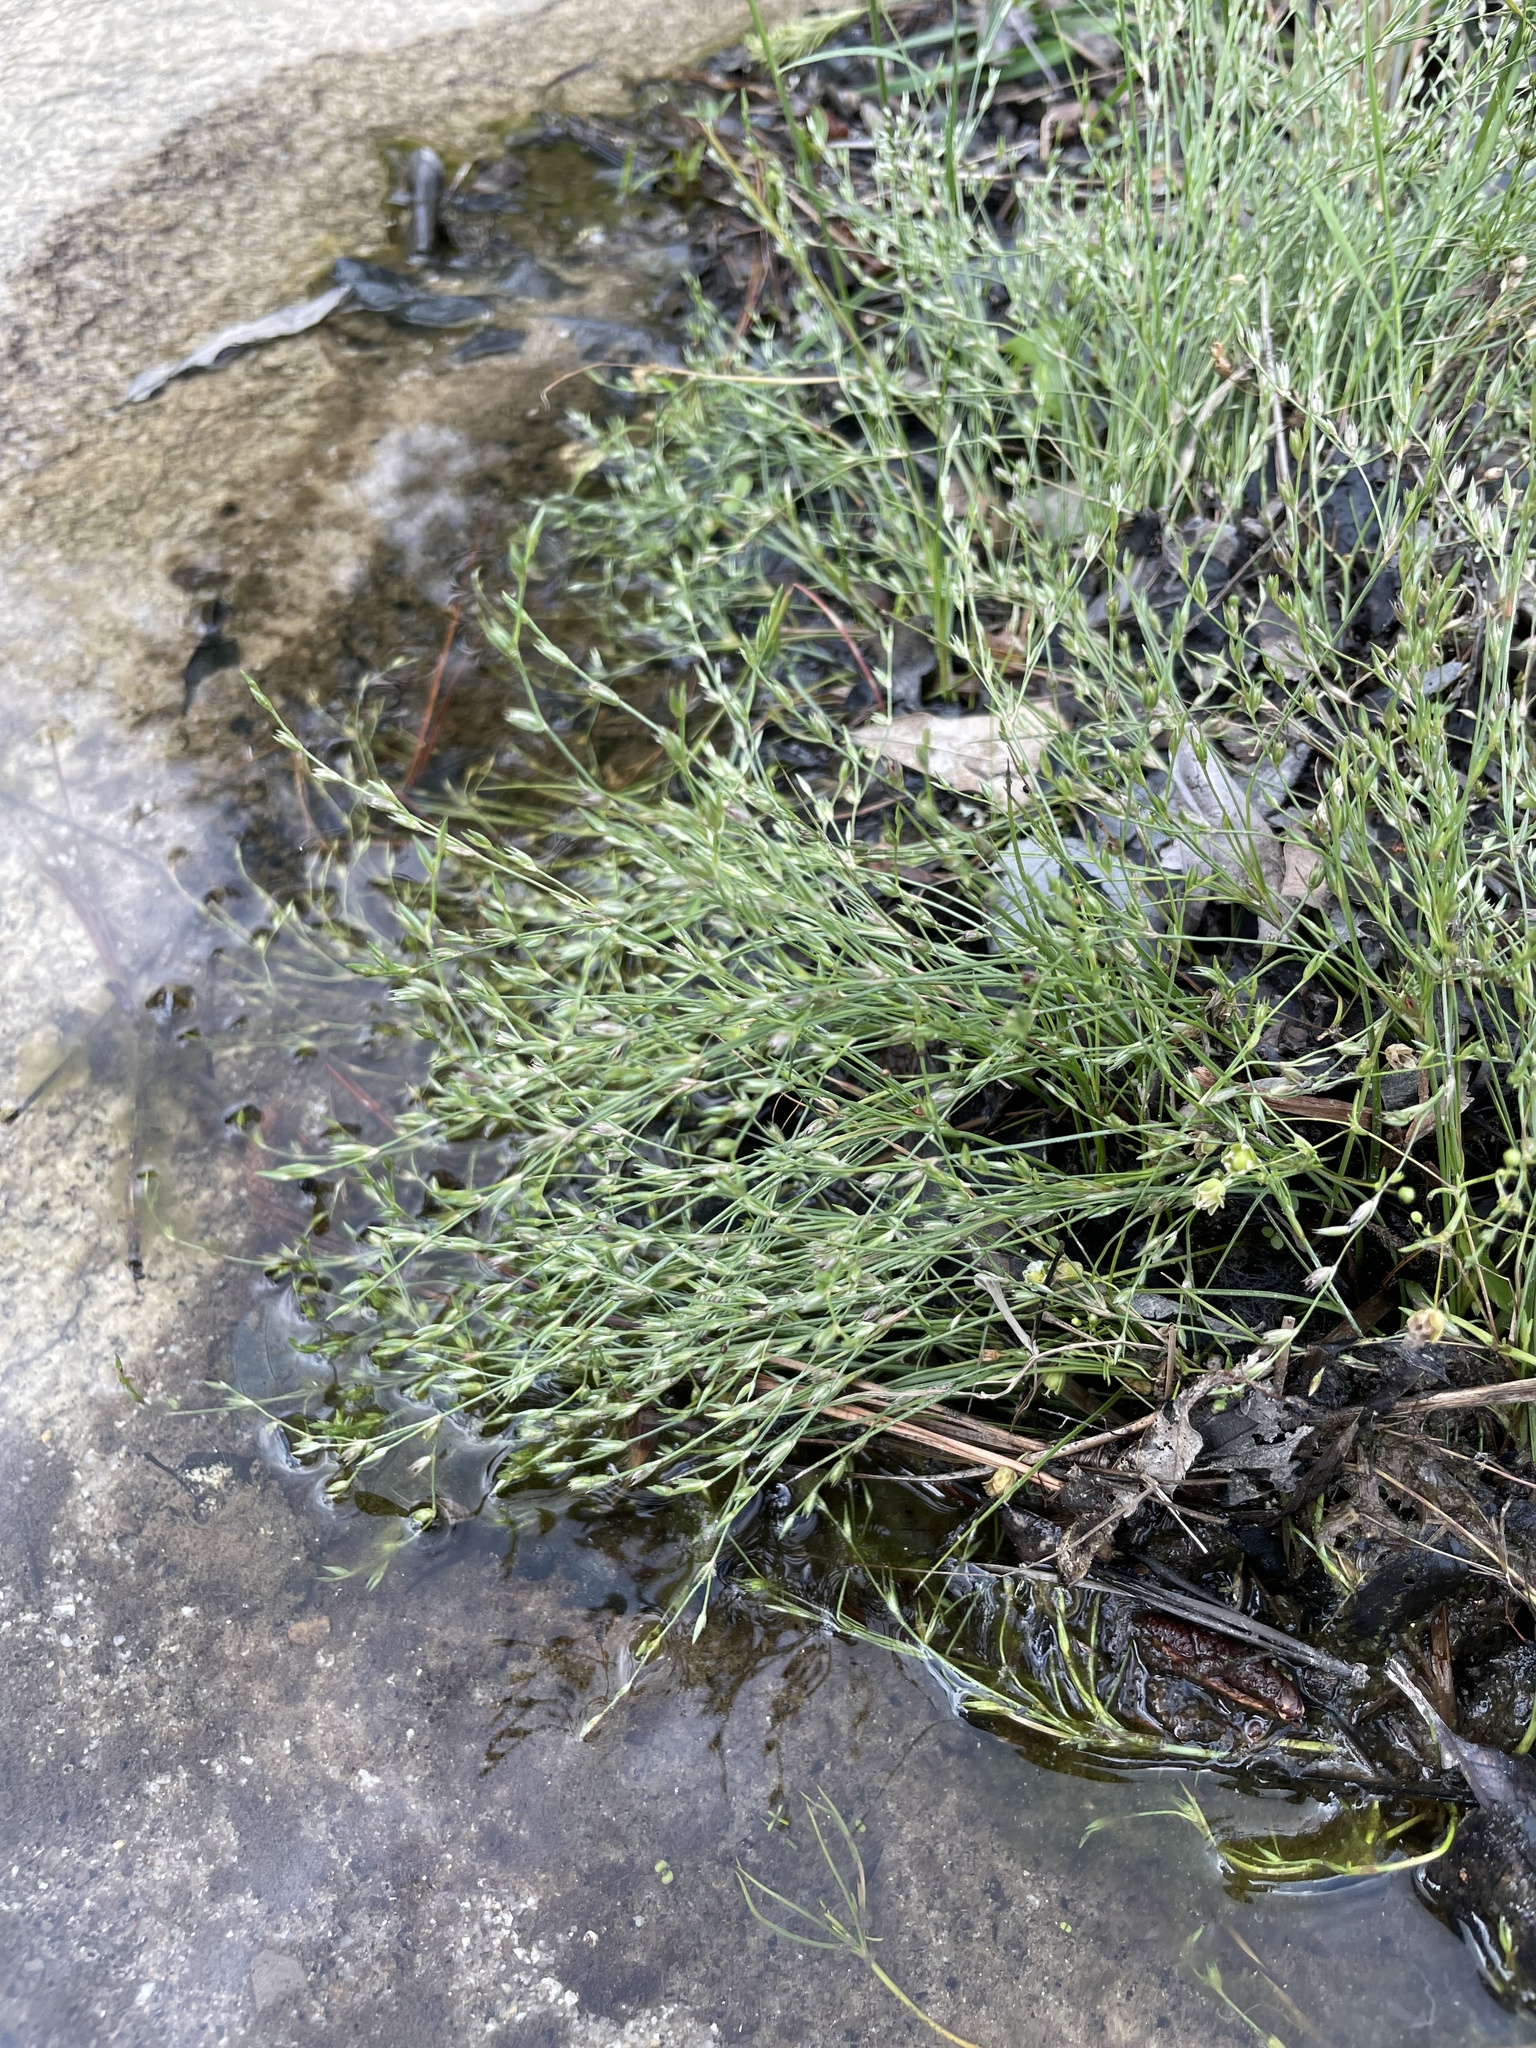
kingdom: Plantae
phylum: Tracheophyta
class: Liliopsida
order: Poales
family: Juncaceae
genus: Juncus
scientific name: Juncus bufonius
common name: Toad rush
